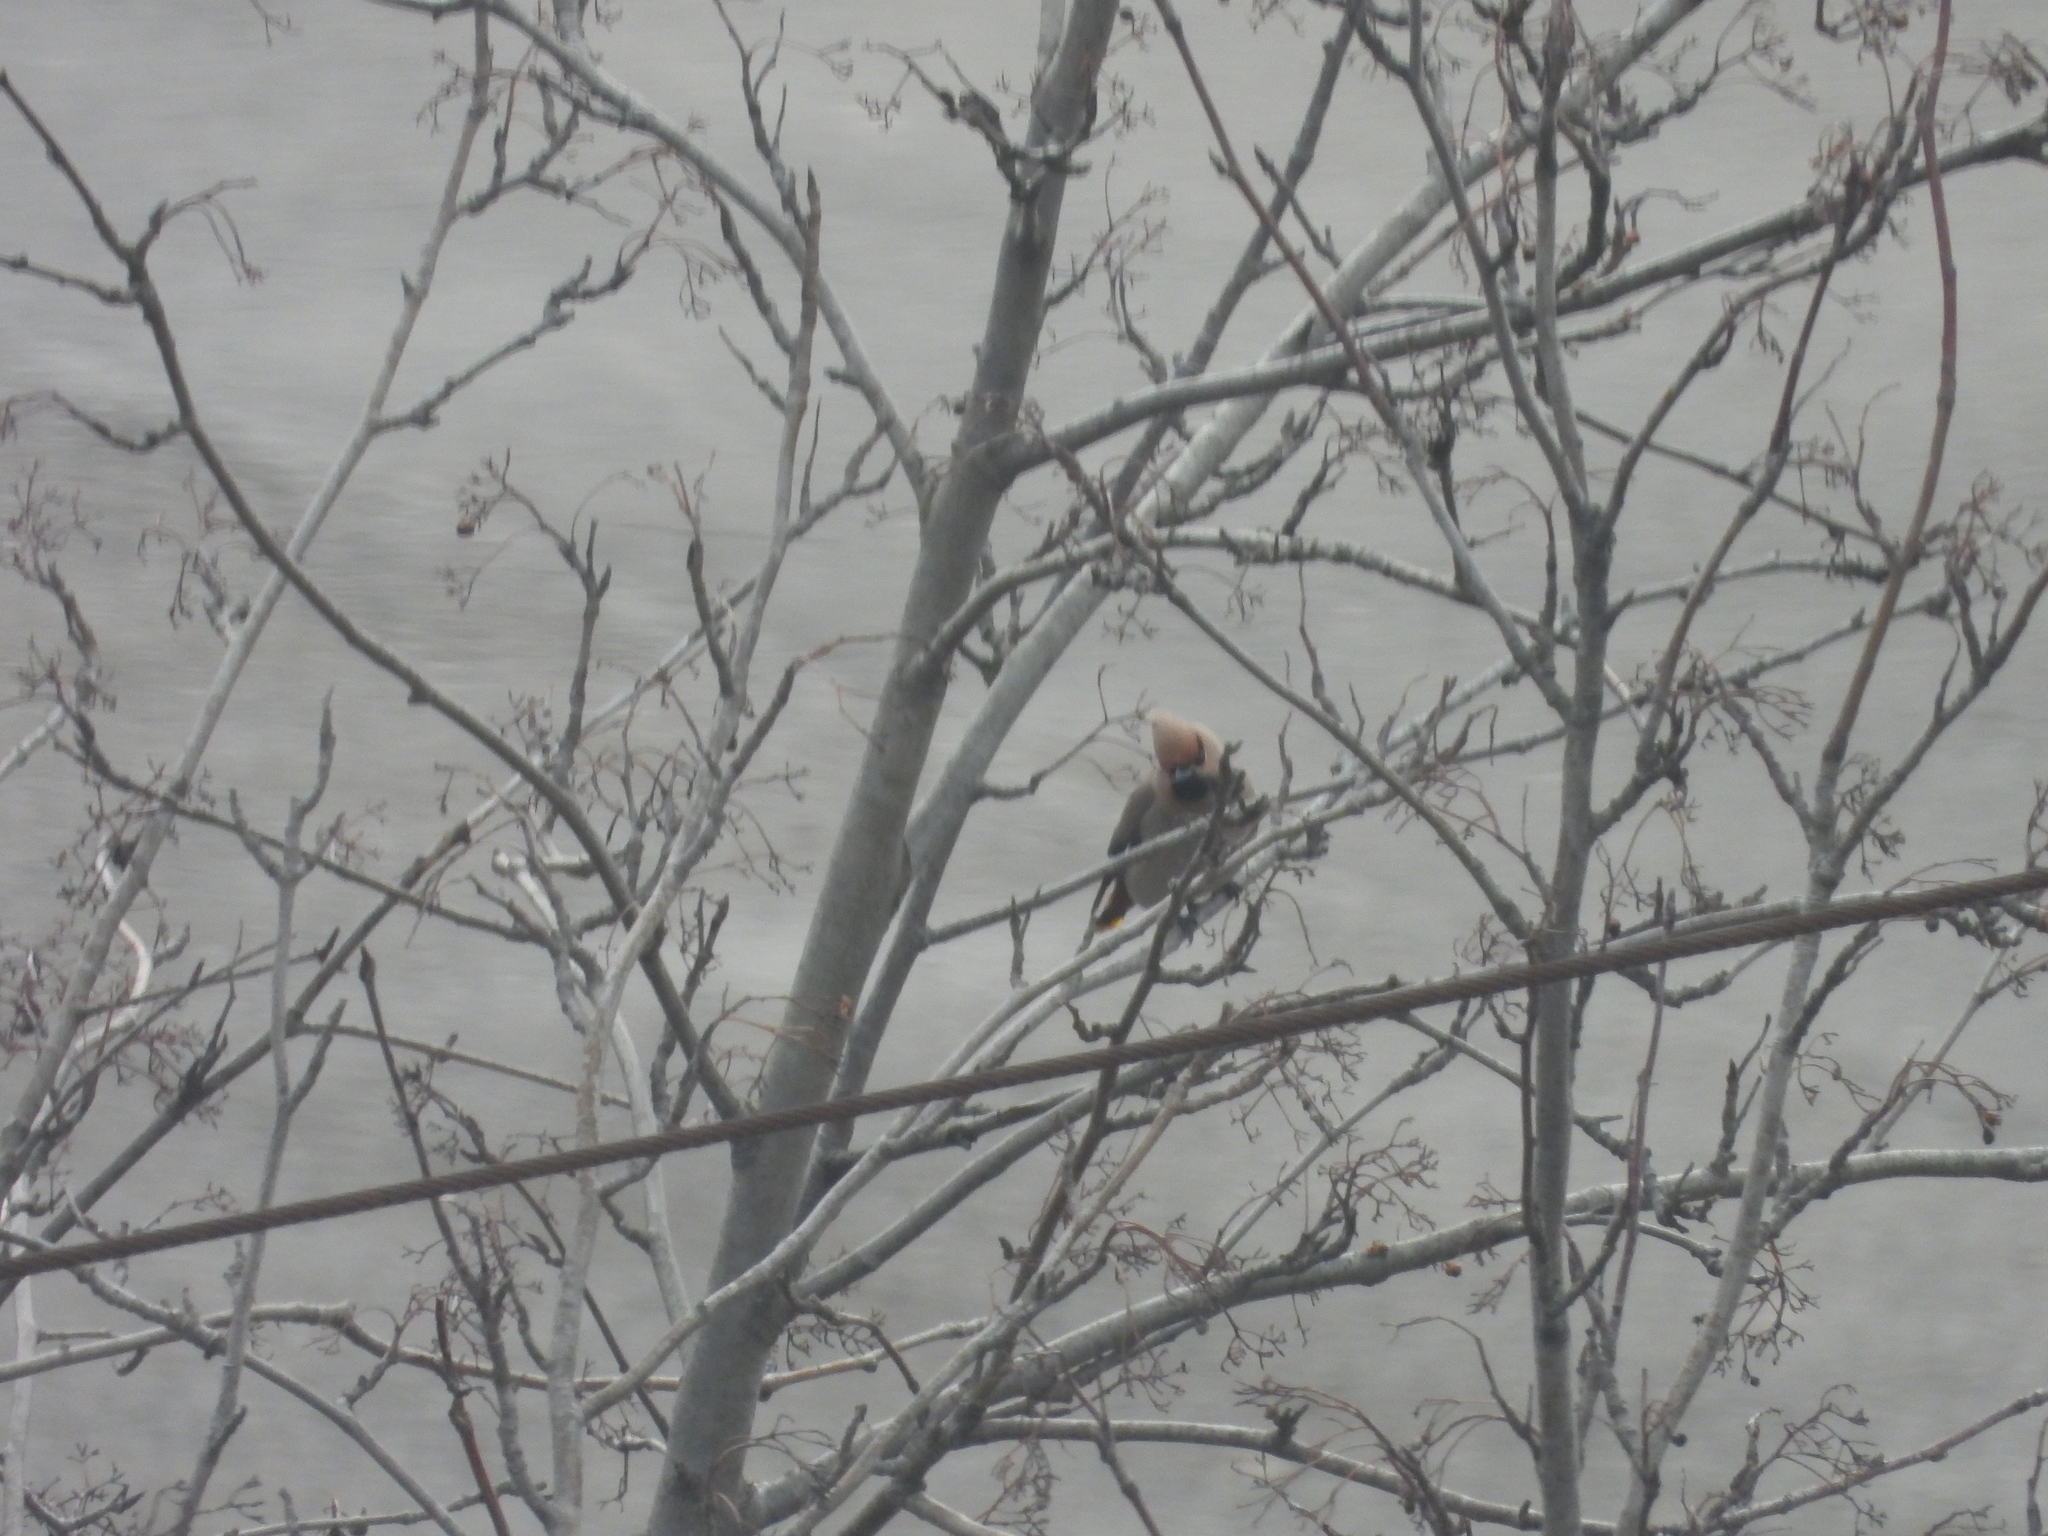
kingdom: Animalia
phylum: Chordata
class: Aves
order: Passeriformes
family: Bombycillidae
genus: Bombycilla
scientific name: Bombycilla garrulus
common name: Bohemian waxwing
